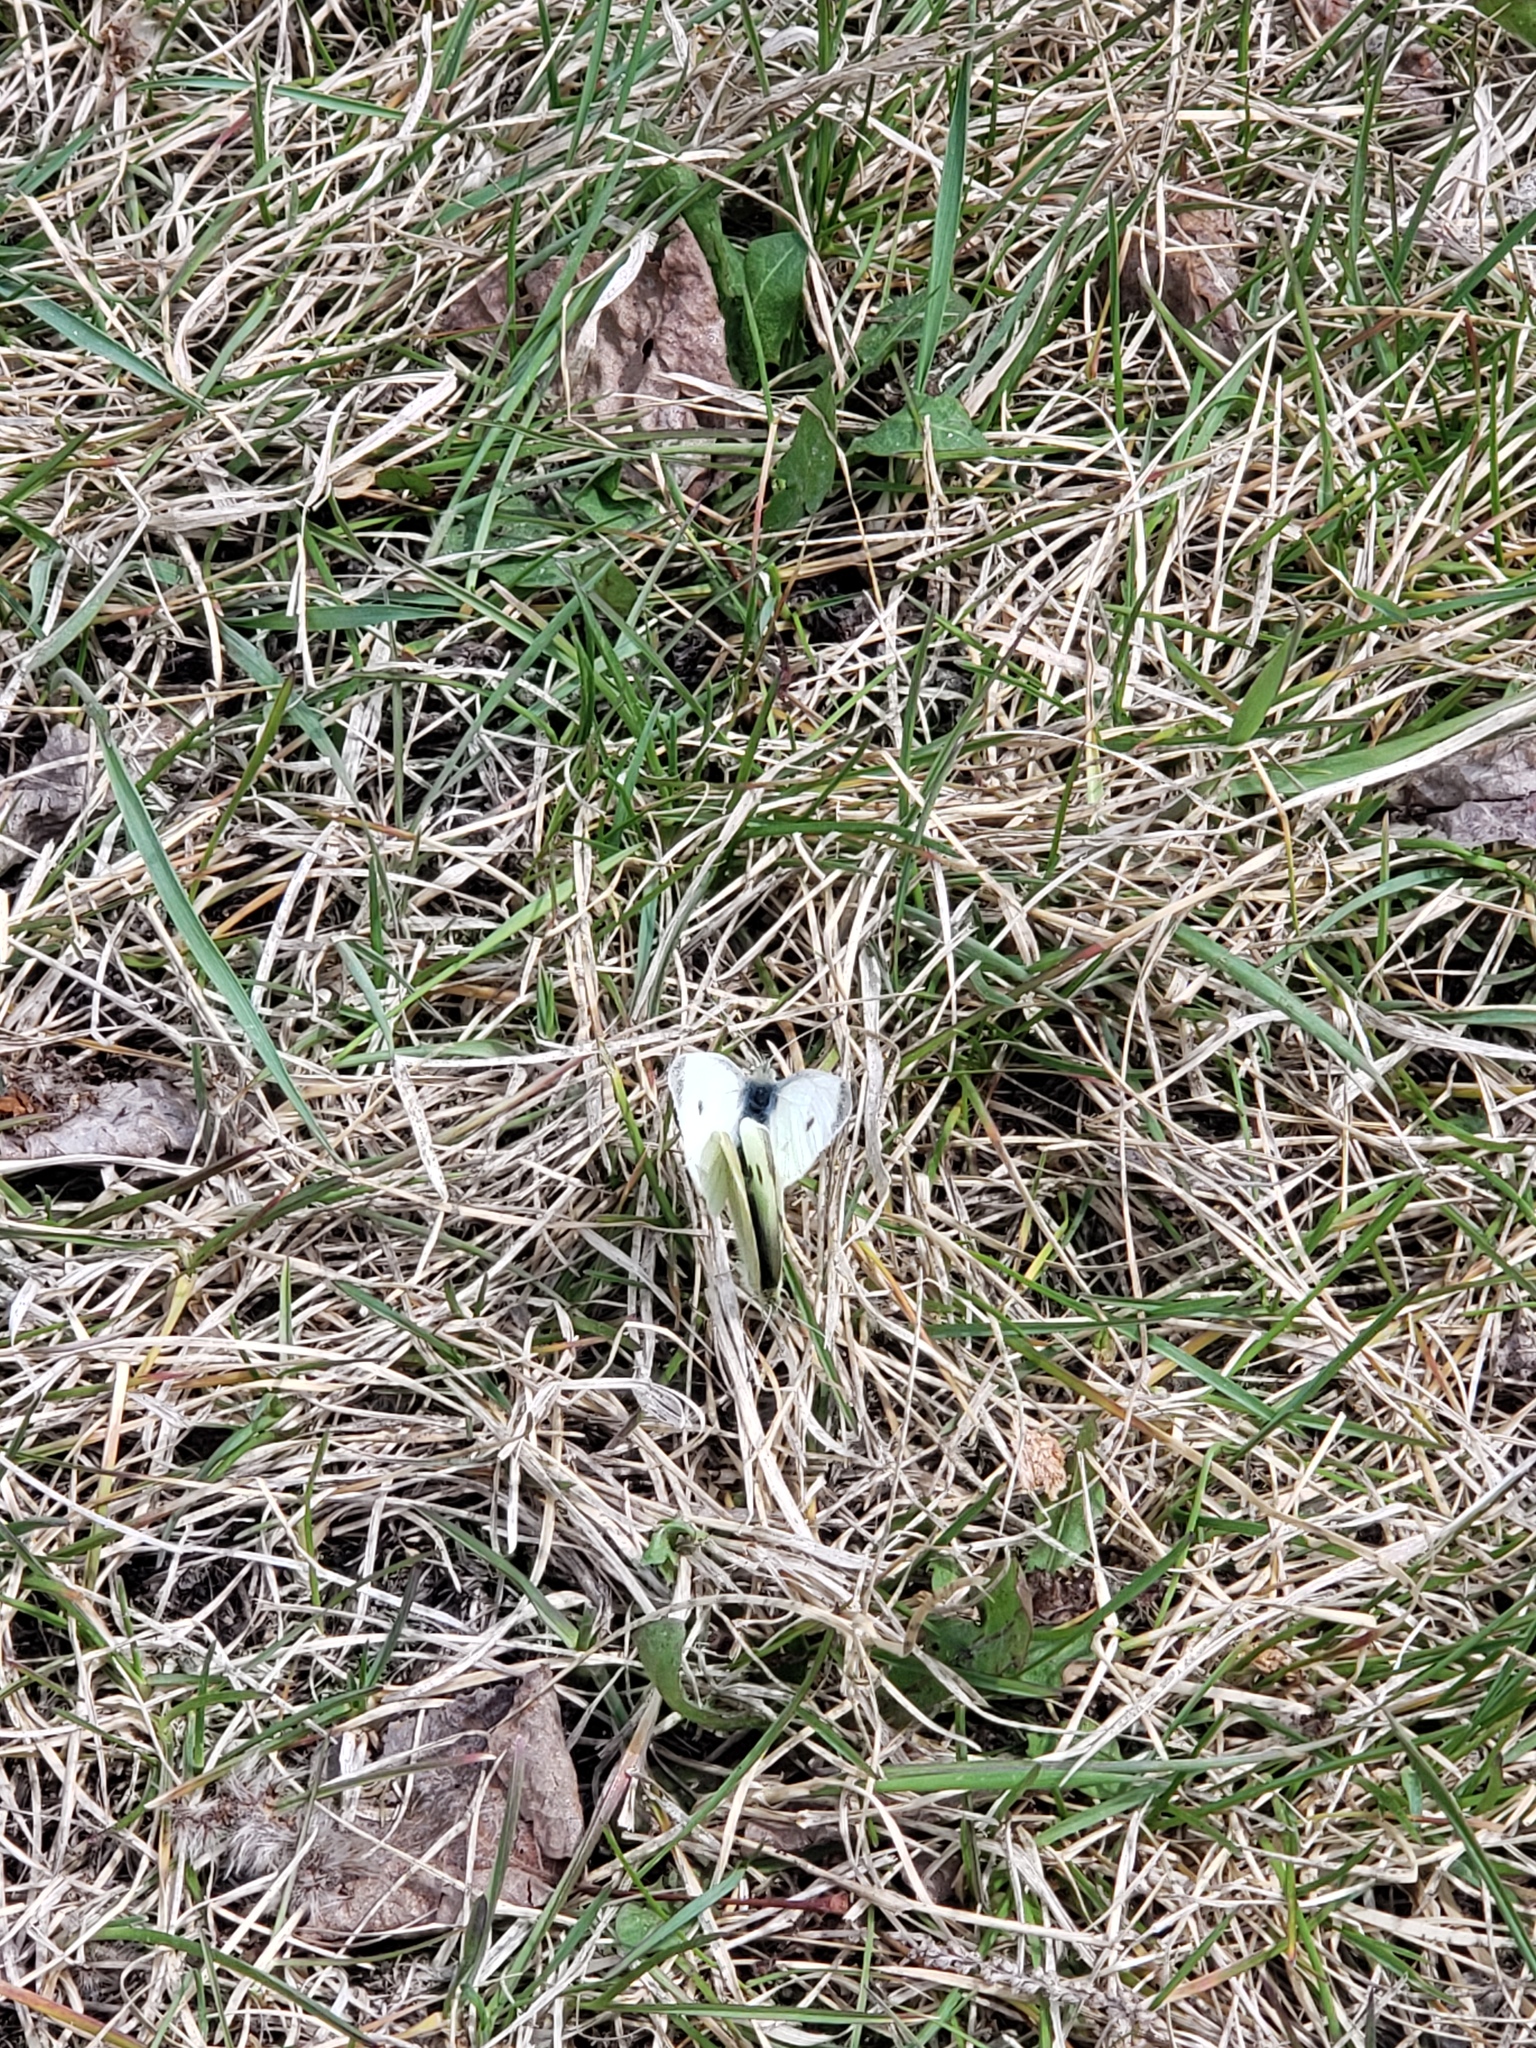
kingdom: Animalia
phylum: Arthropoda
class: Insecta
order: Lepidoptera
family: Pieridae
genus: Pieris
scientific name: Pieris rapae
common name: Small white
